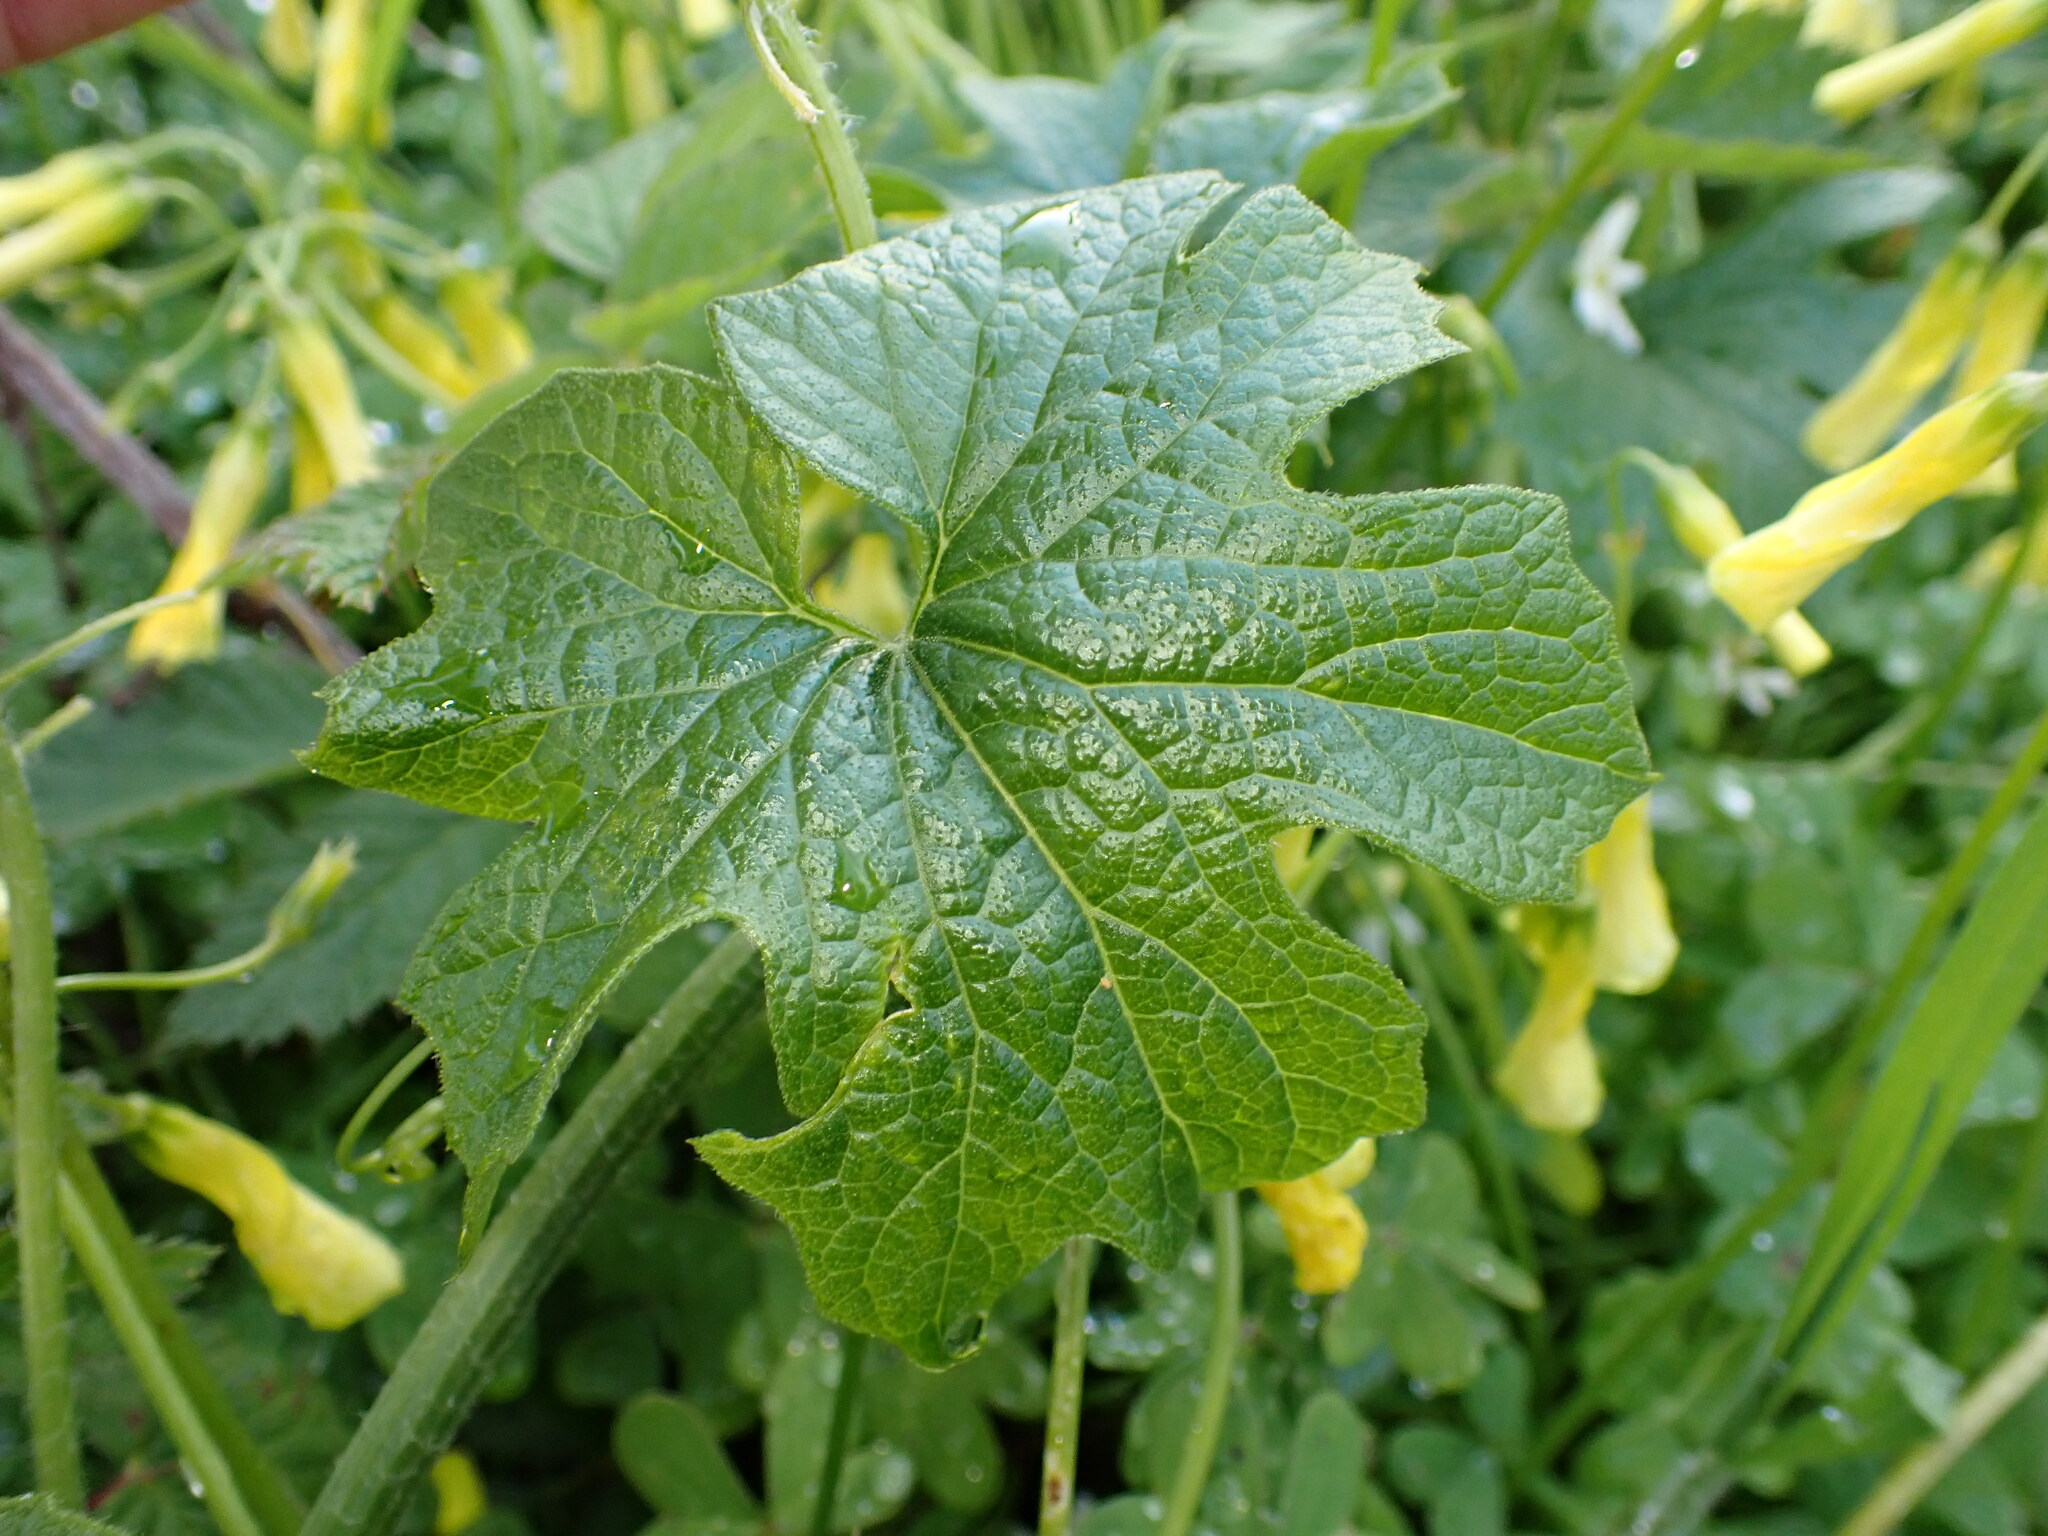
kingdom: Plantae
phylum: Tracheophyta
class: Magnoliopsida
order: Cucurbitales
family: Cucurbitaceae
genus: Marah
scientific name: Marah oregana
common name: Coastal manroot
